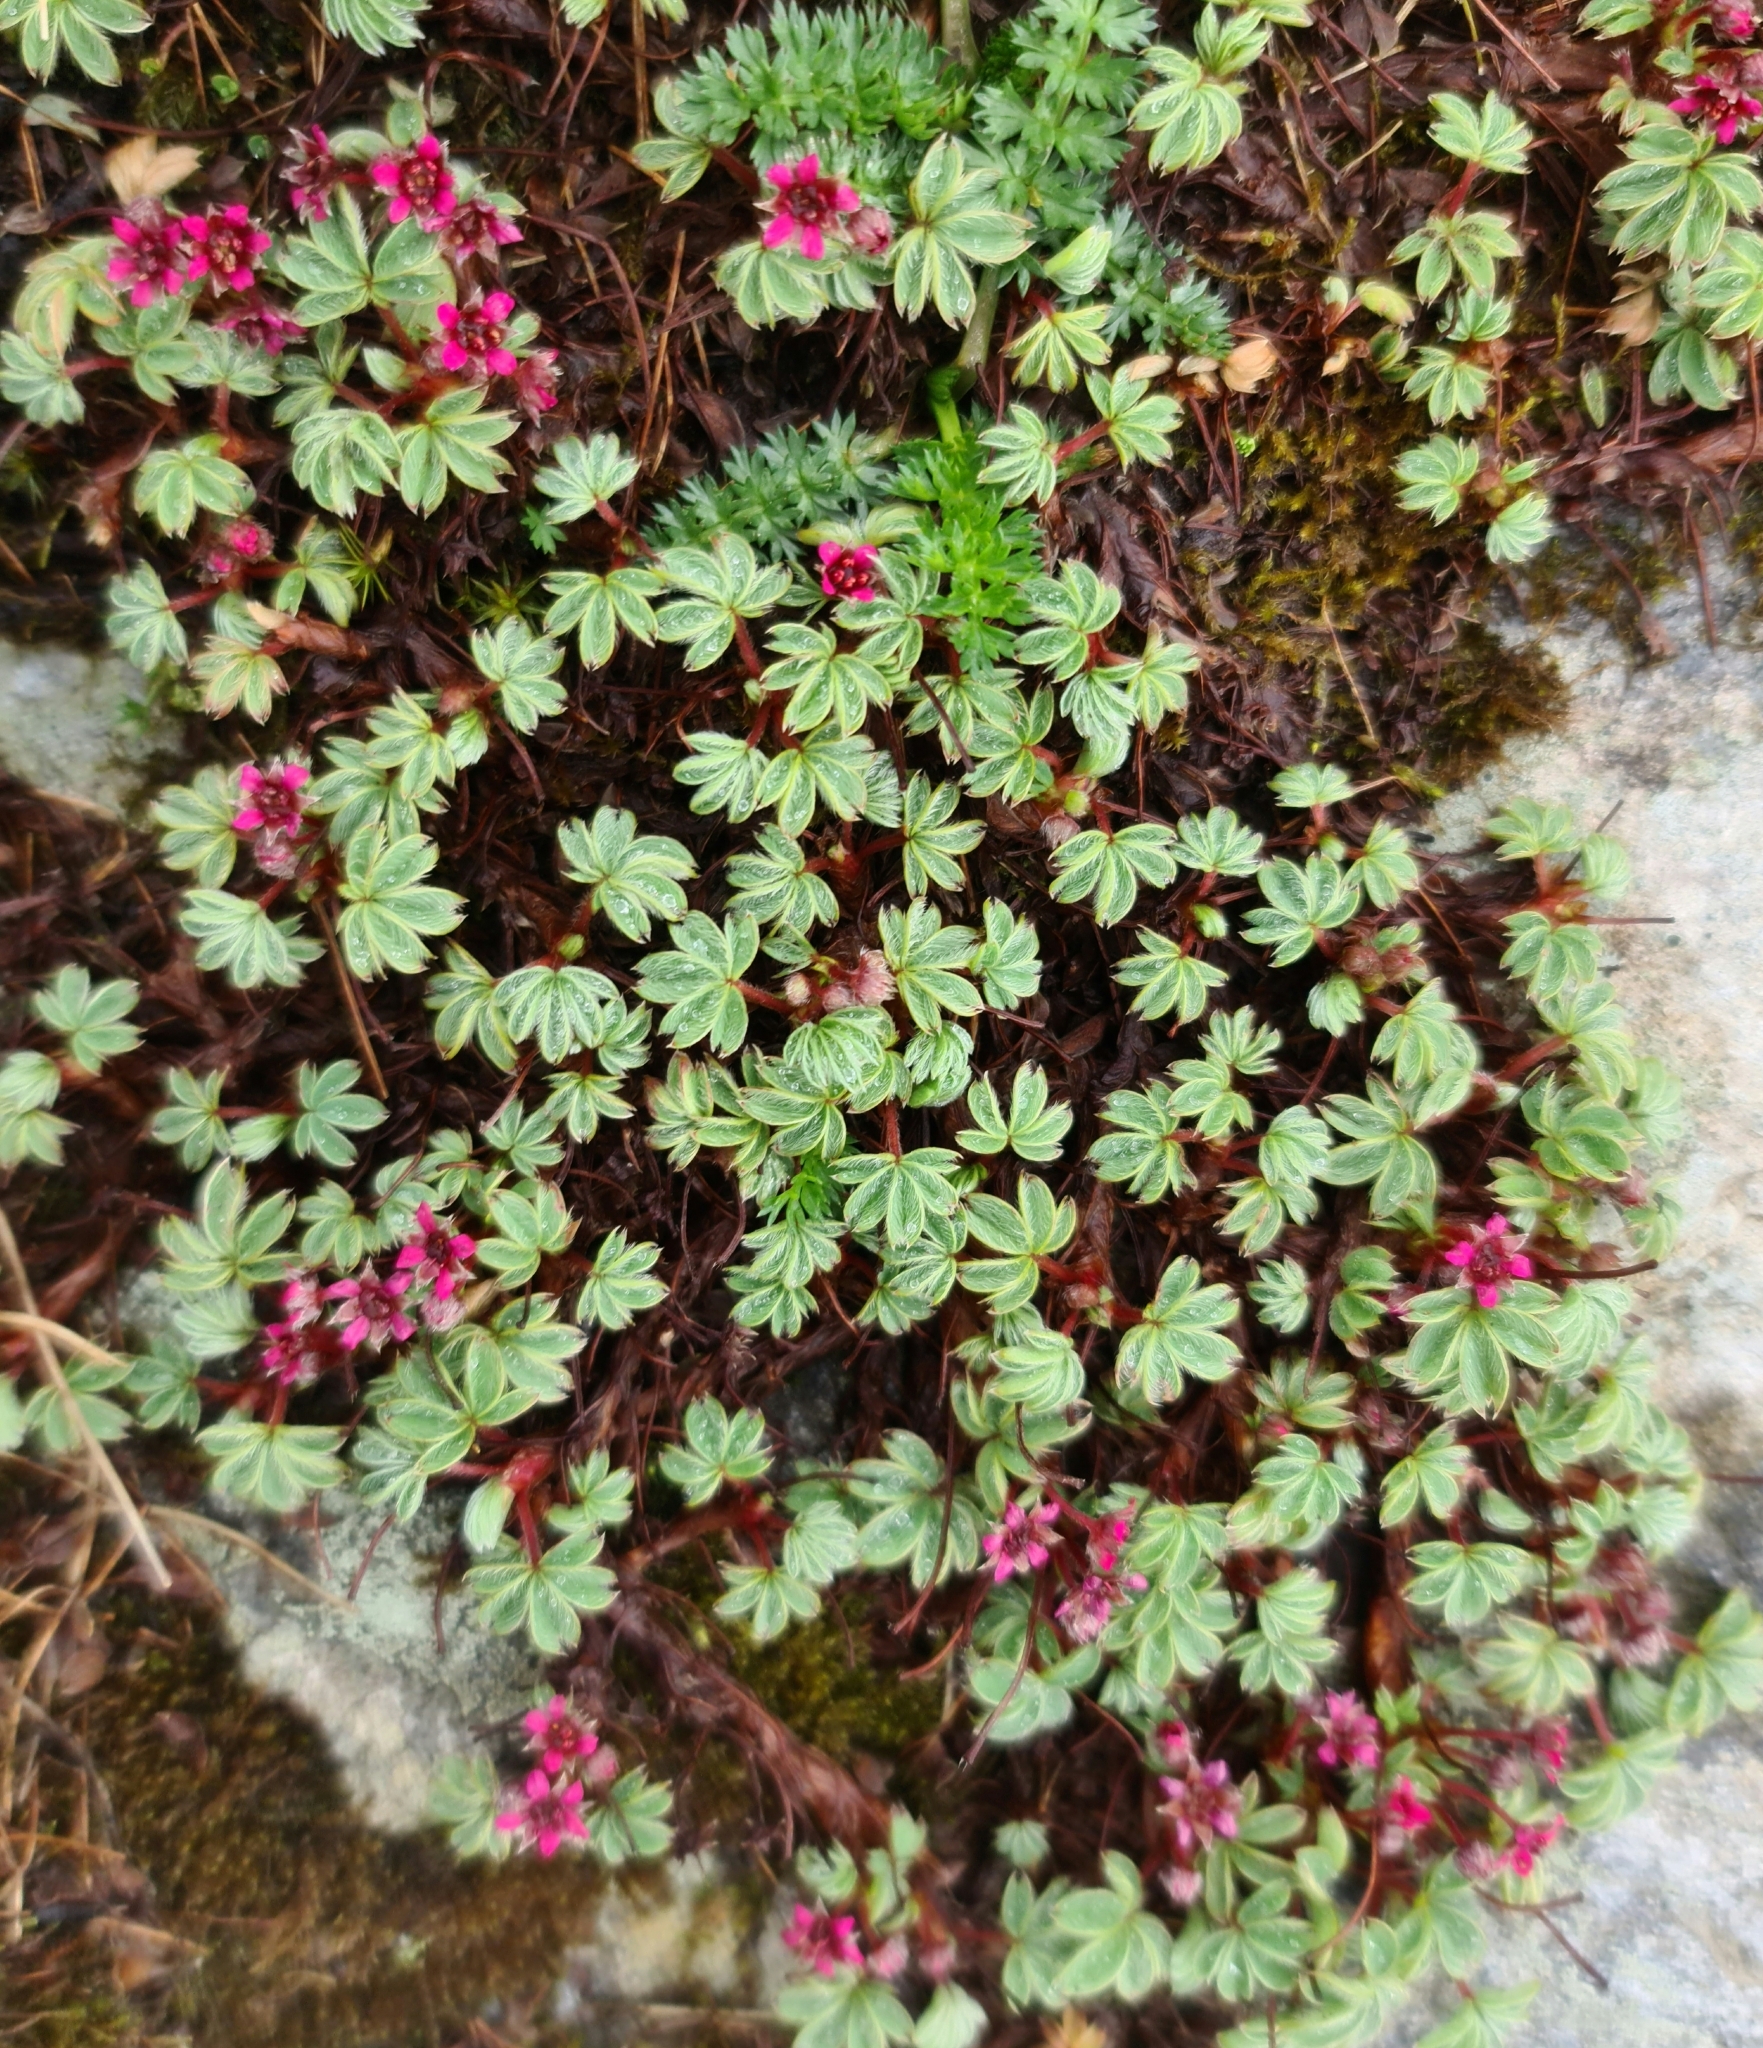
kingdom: Plantae
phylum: Tracheophyta
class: Magnoliopsida
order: Rosales
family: Rosaceae
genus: Potentilla
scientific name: Potentilla purpurea
